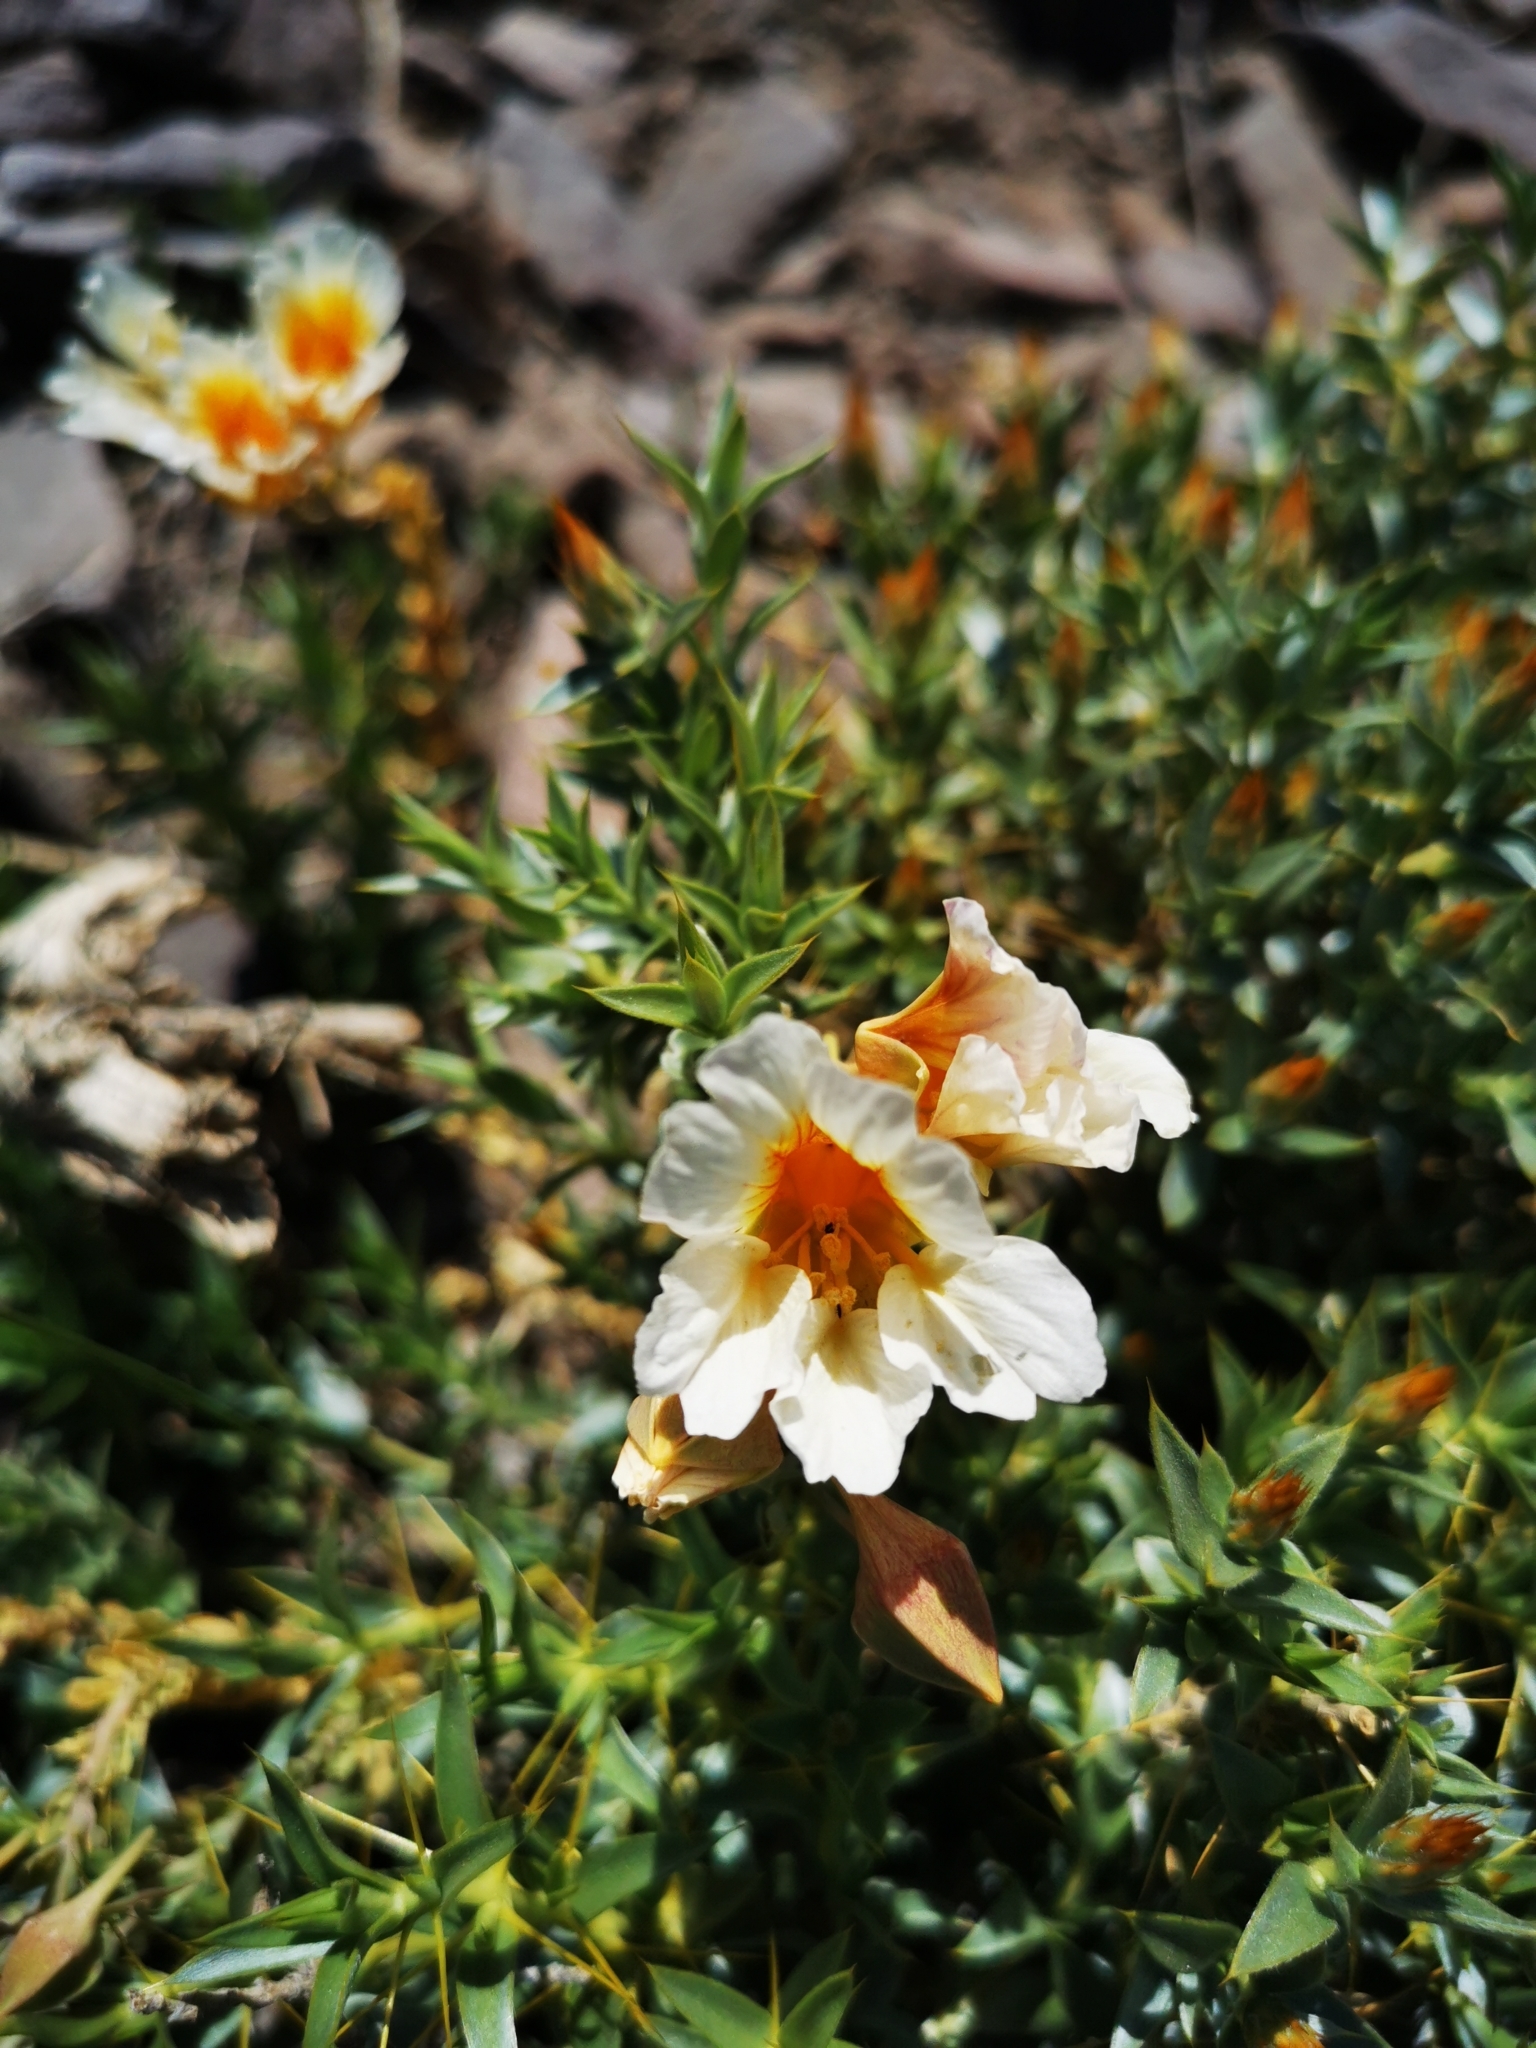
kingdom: Plantae
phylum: Tracheophyta
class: Magnoliopsida
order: Brassicales
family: Tropaeolaceae
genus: Tropaeolum
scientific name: Tropaeolum sessilifolium
